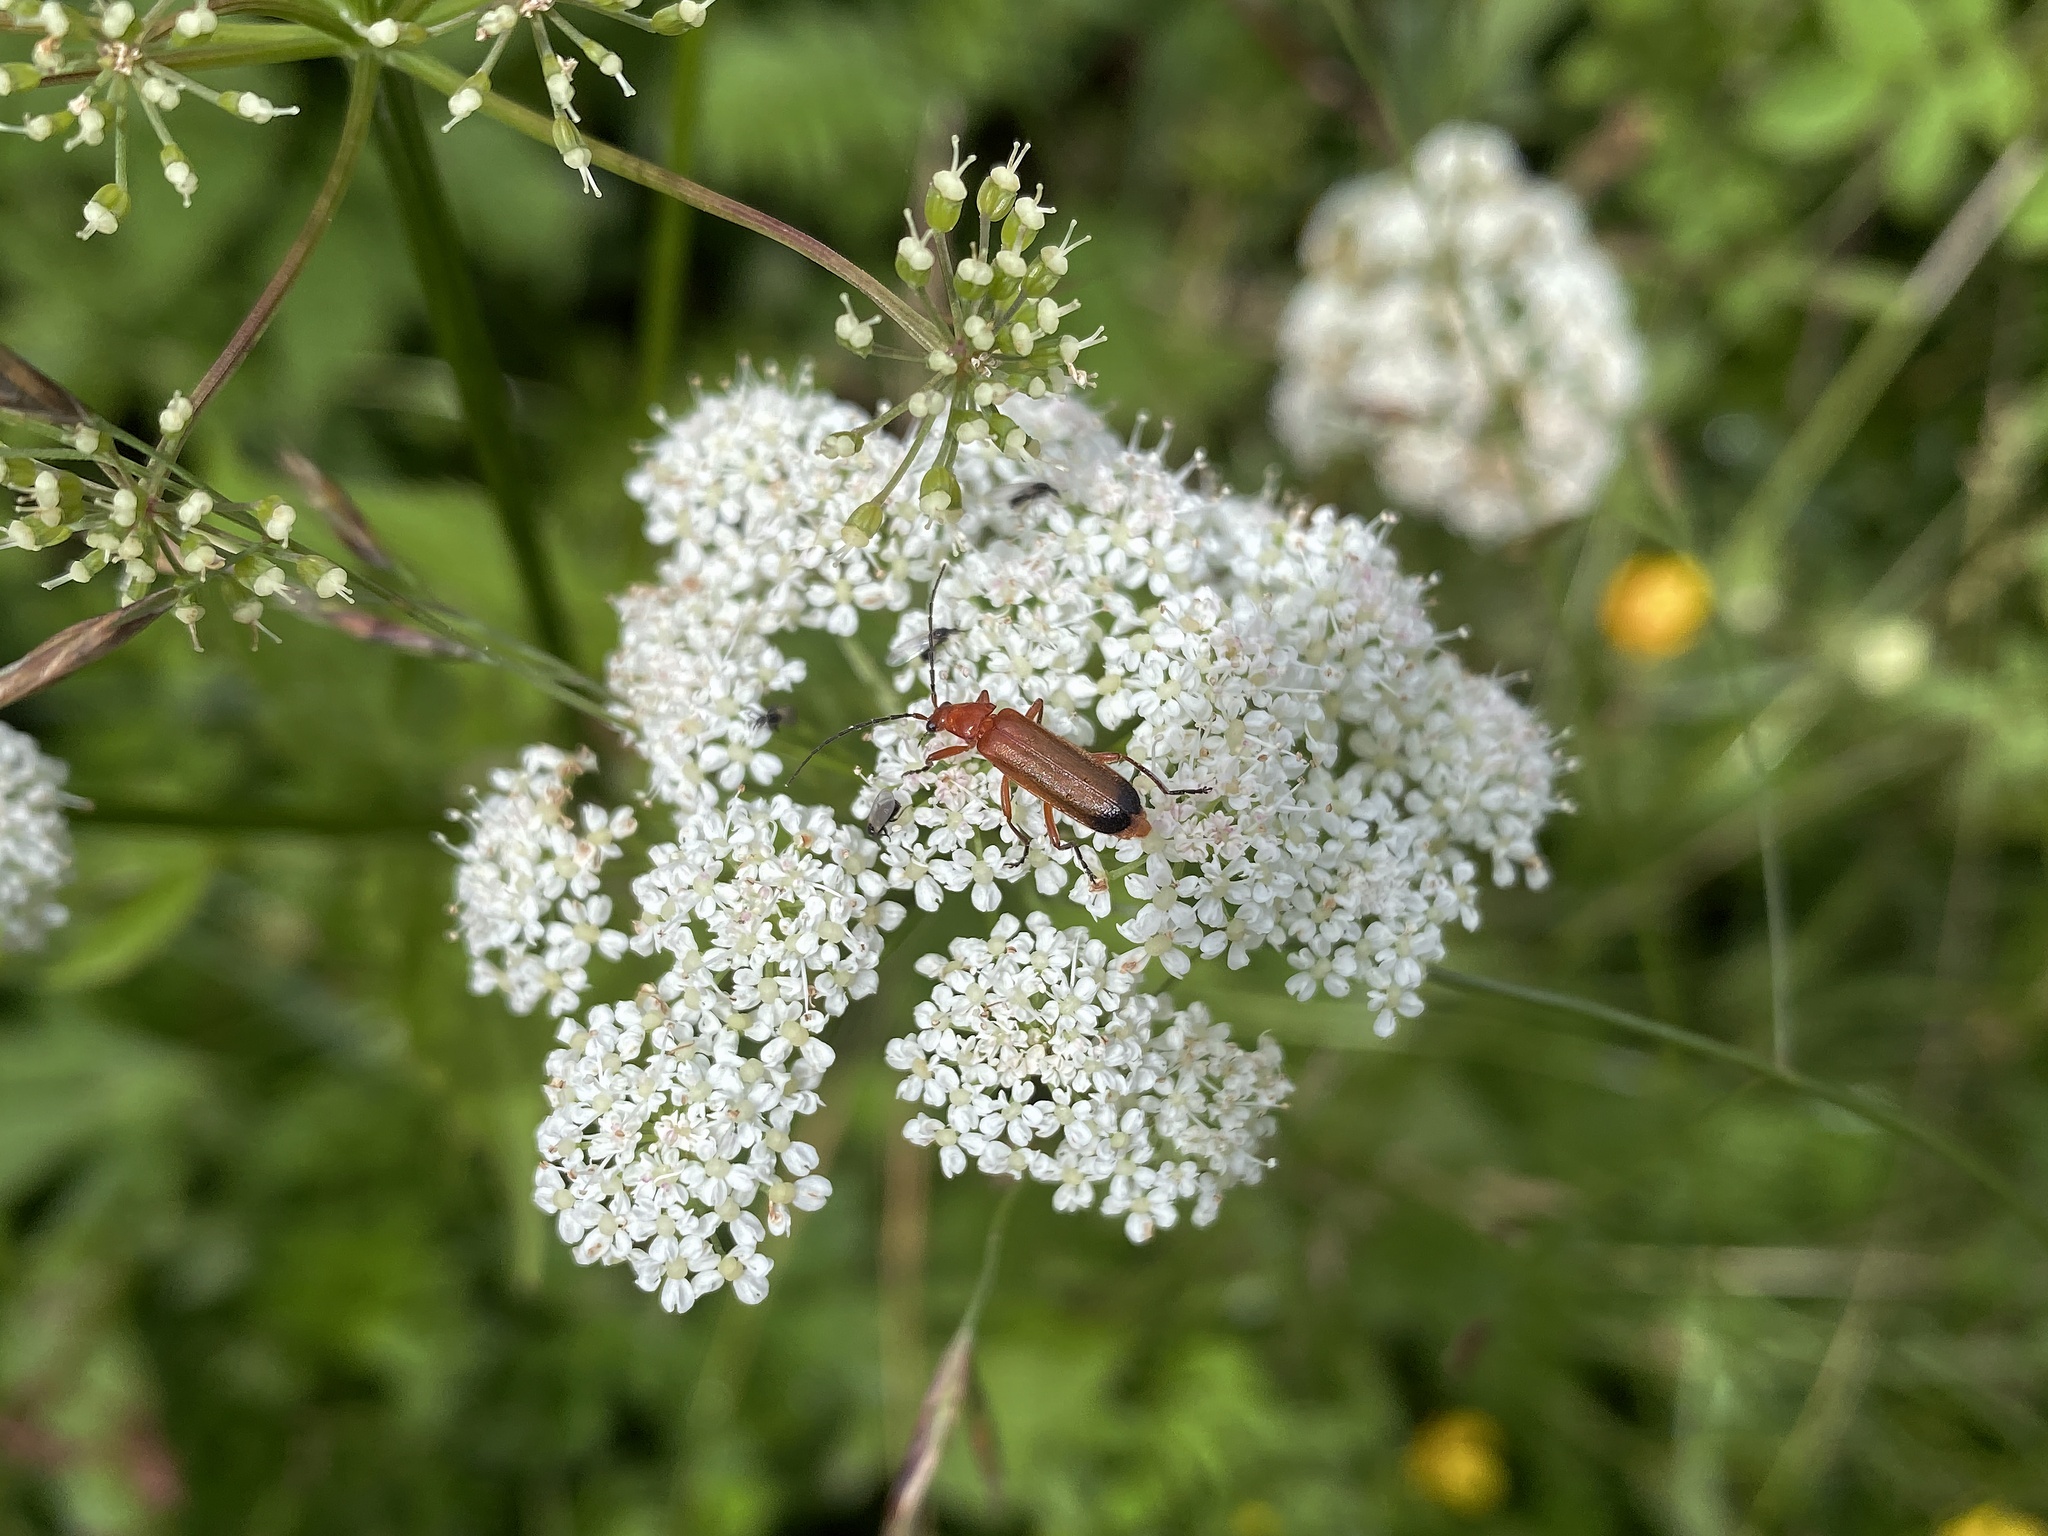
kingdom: Animalia
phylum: Arthropoda
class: Insecta
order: Coleoptera
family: Cantharidae
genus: Rhagonycha
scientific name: Rhagonycha fulva
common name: Common red soldier beetle
